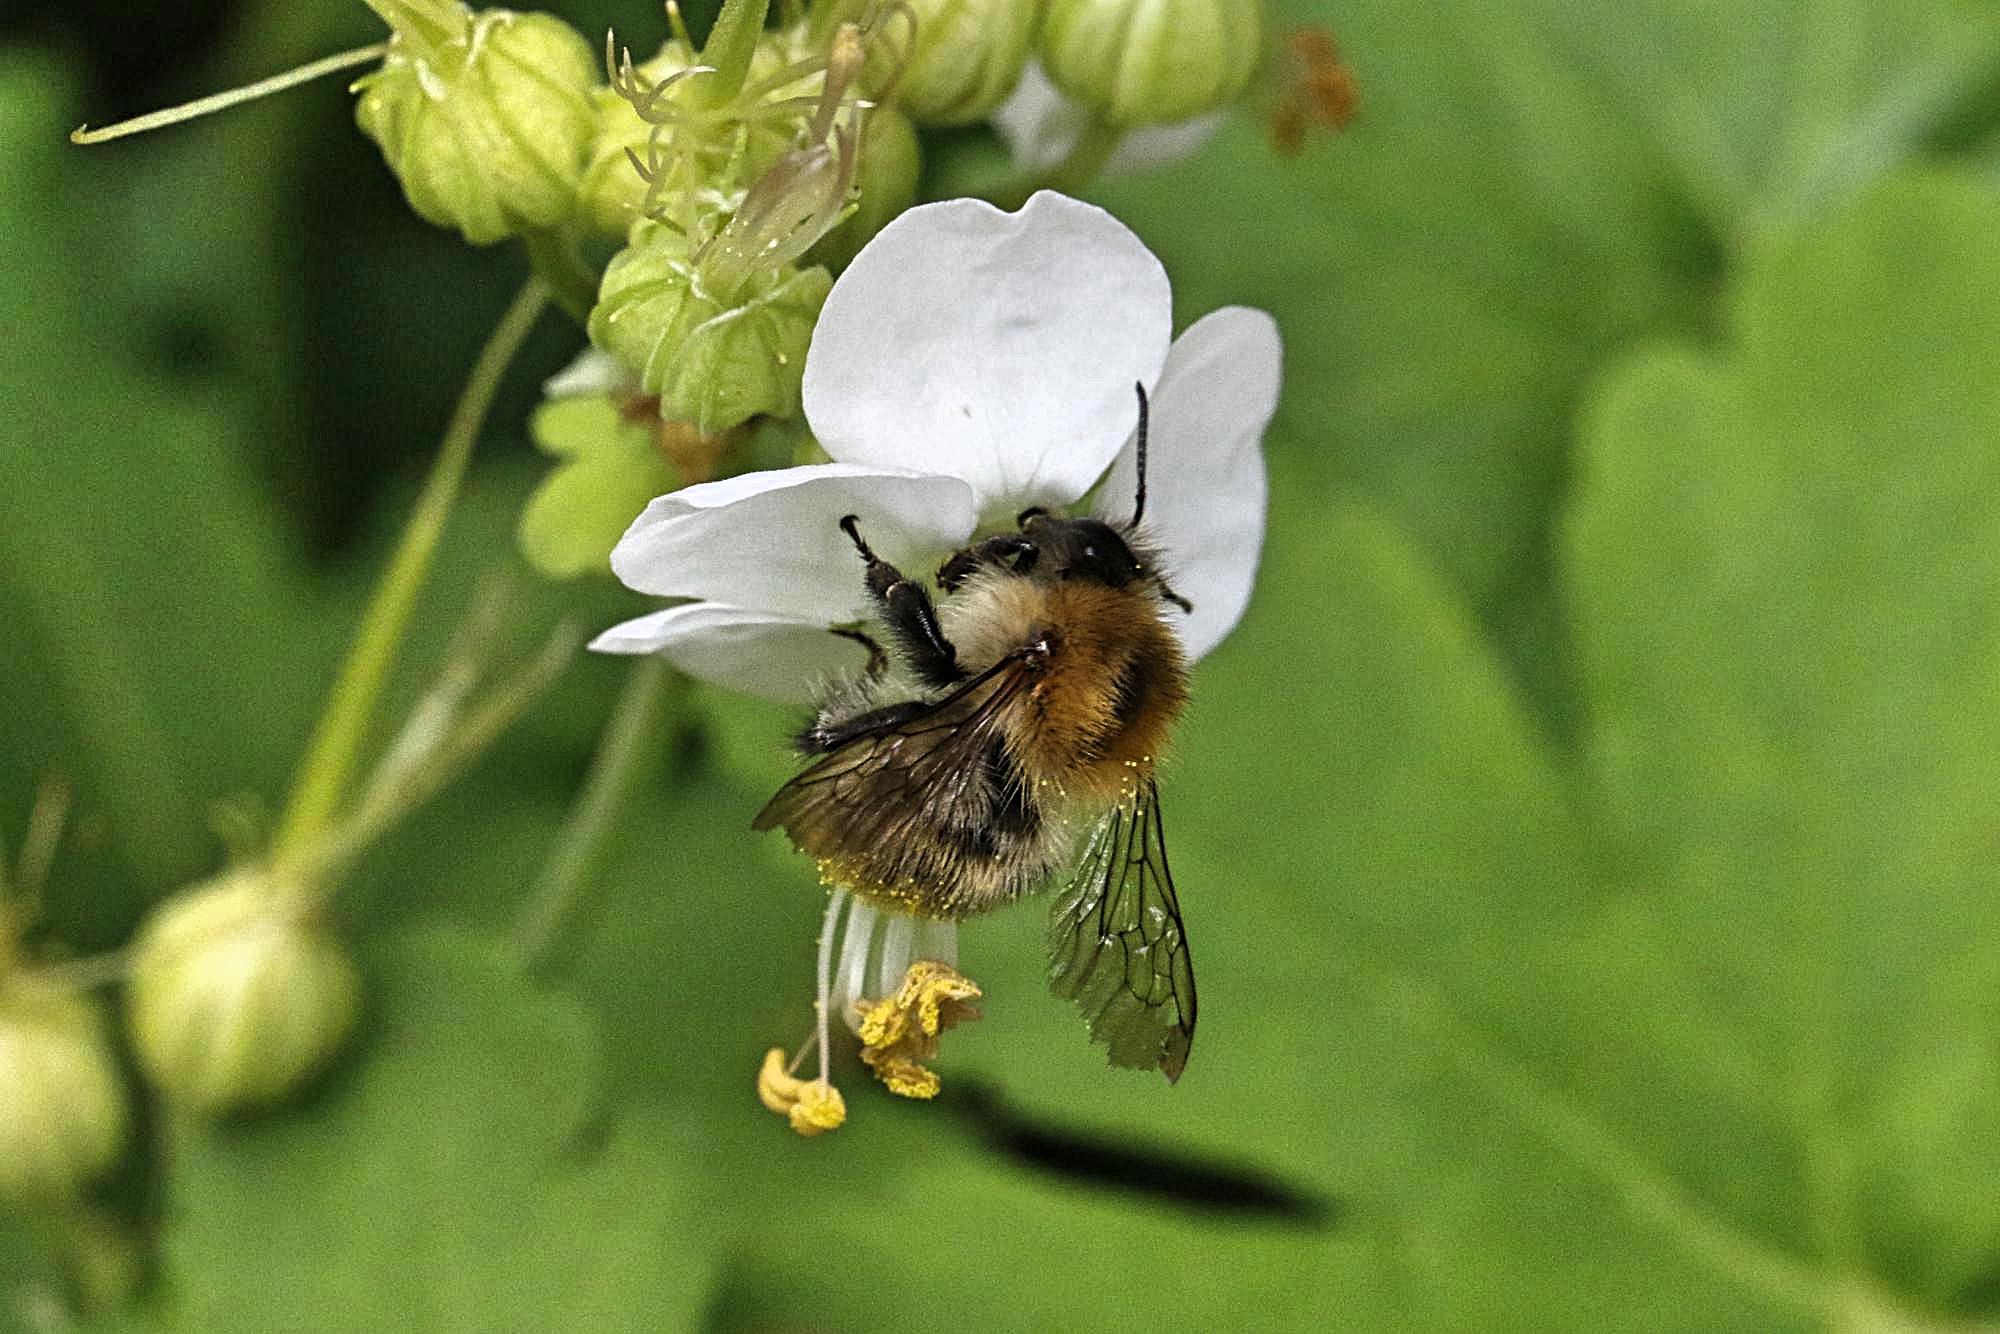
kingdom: Animalia
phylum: Arthropoda
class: Insecta
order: Hymenoptera
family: Apidae
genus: Bombus
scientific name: Bombus pascuorum
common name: Common carder bee
